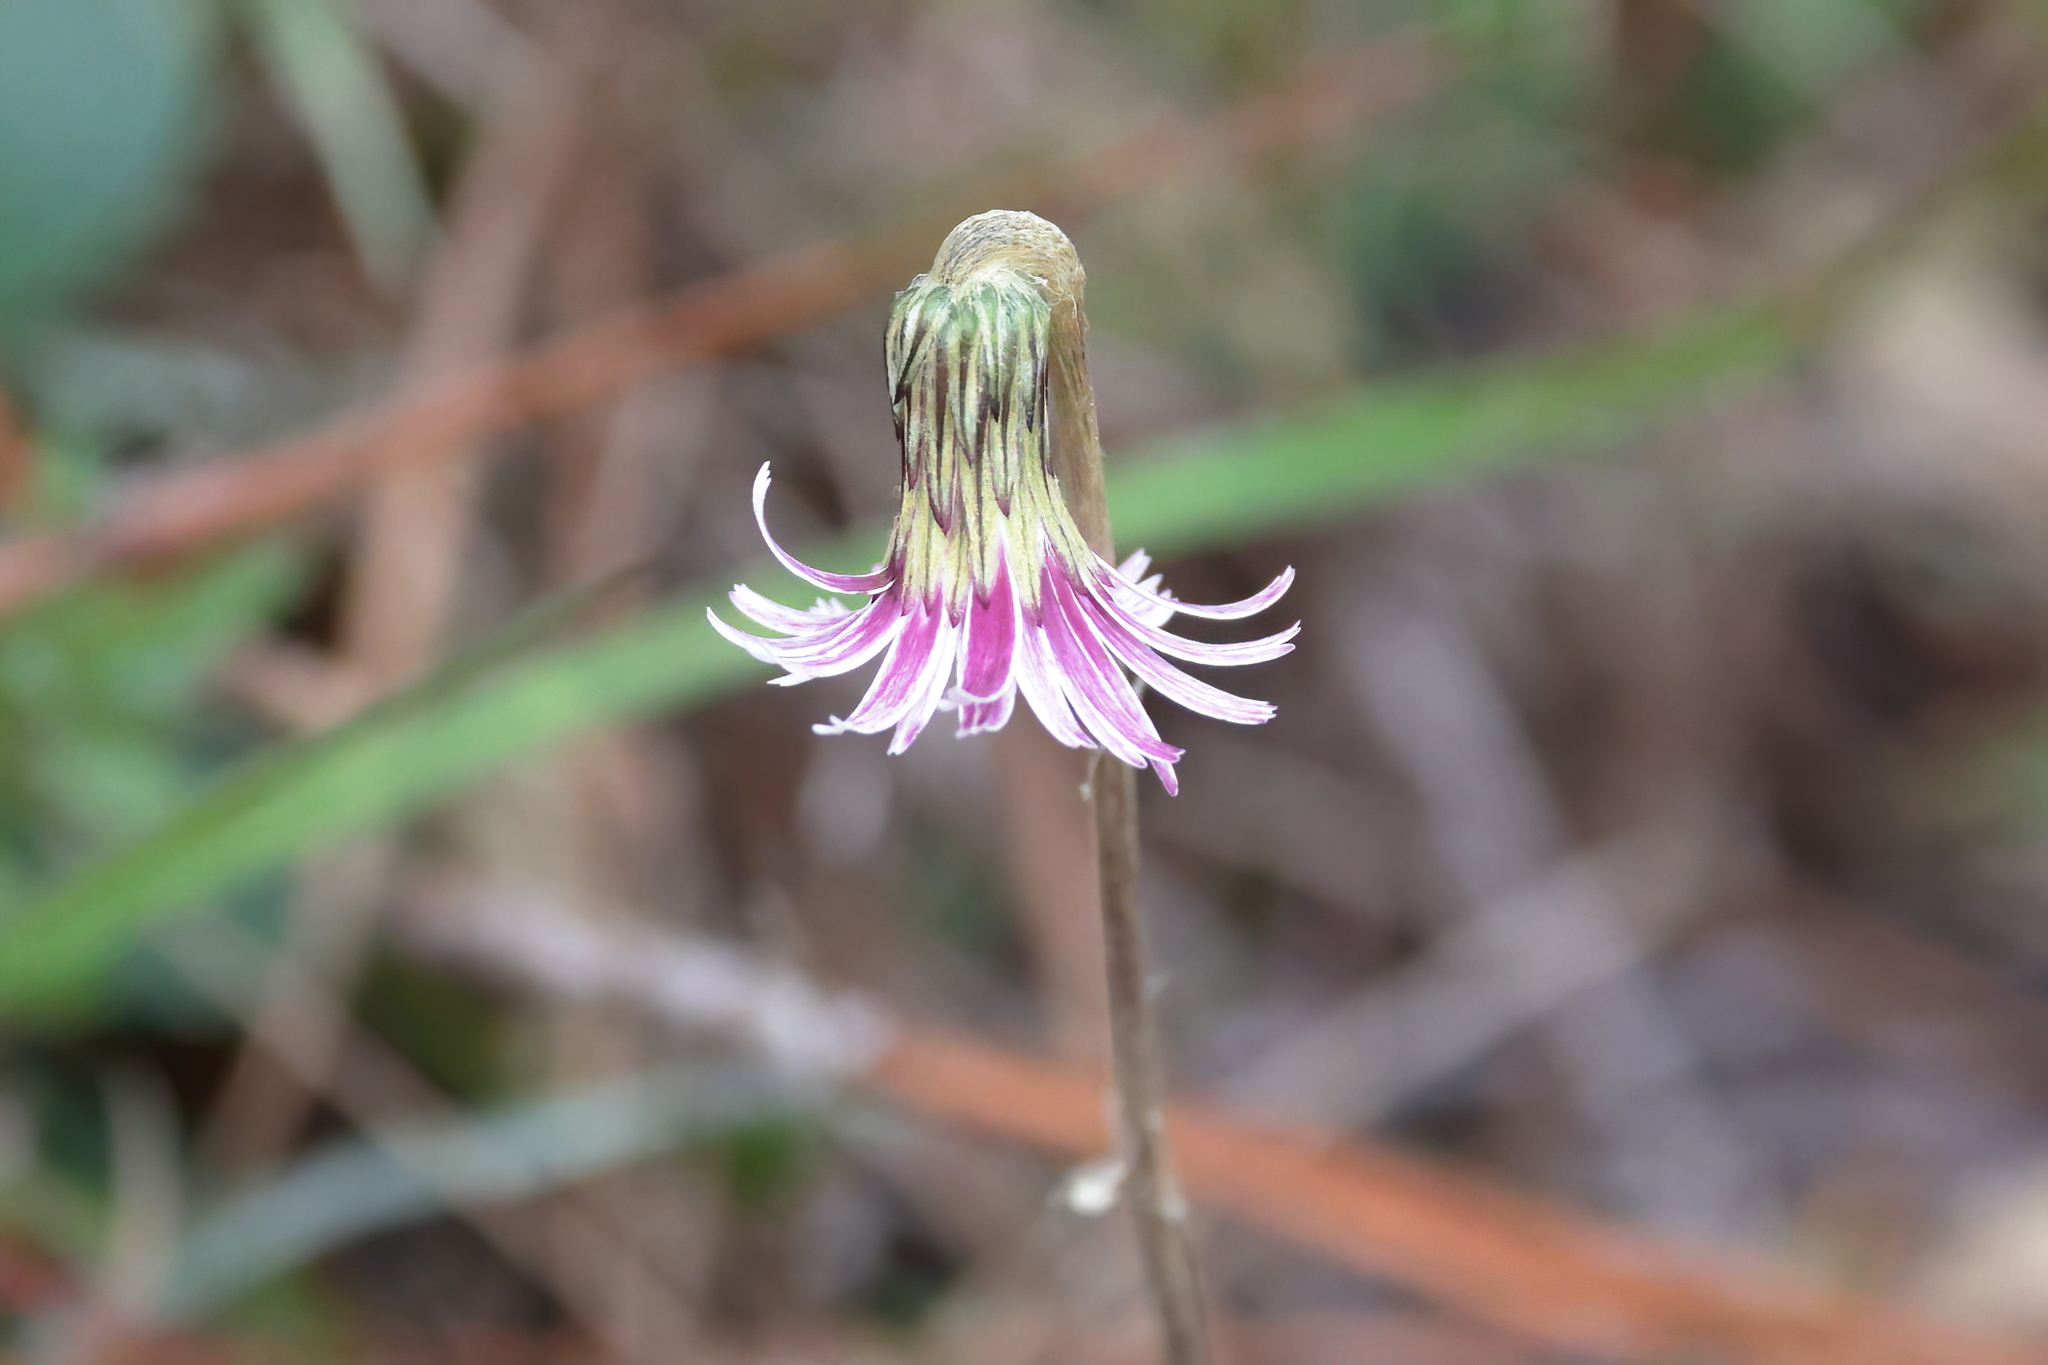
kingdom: Plantae
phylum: Tracheophyta
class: Magnoliopsida
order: Asterales
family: Asteraceae
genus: Chaptalia
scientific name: Chaptalia tomentosa
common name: Woolly sunbonnet
